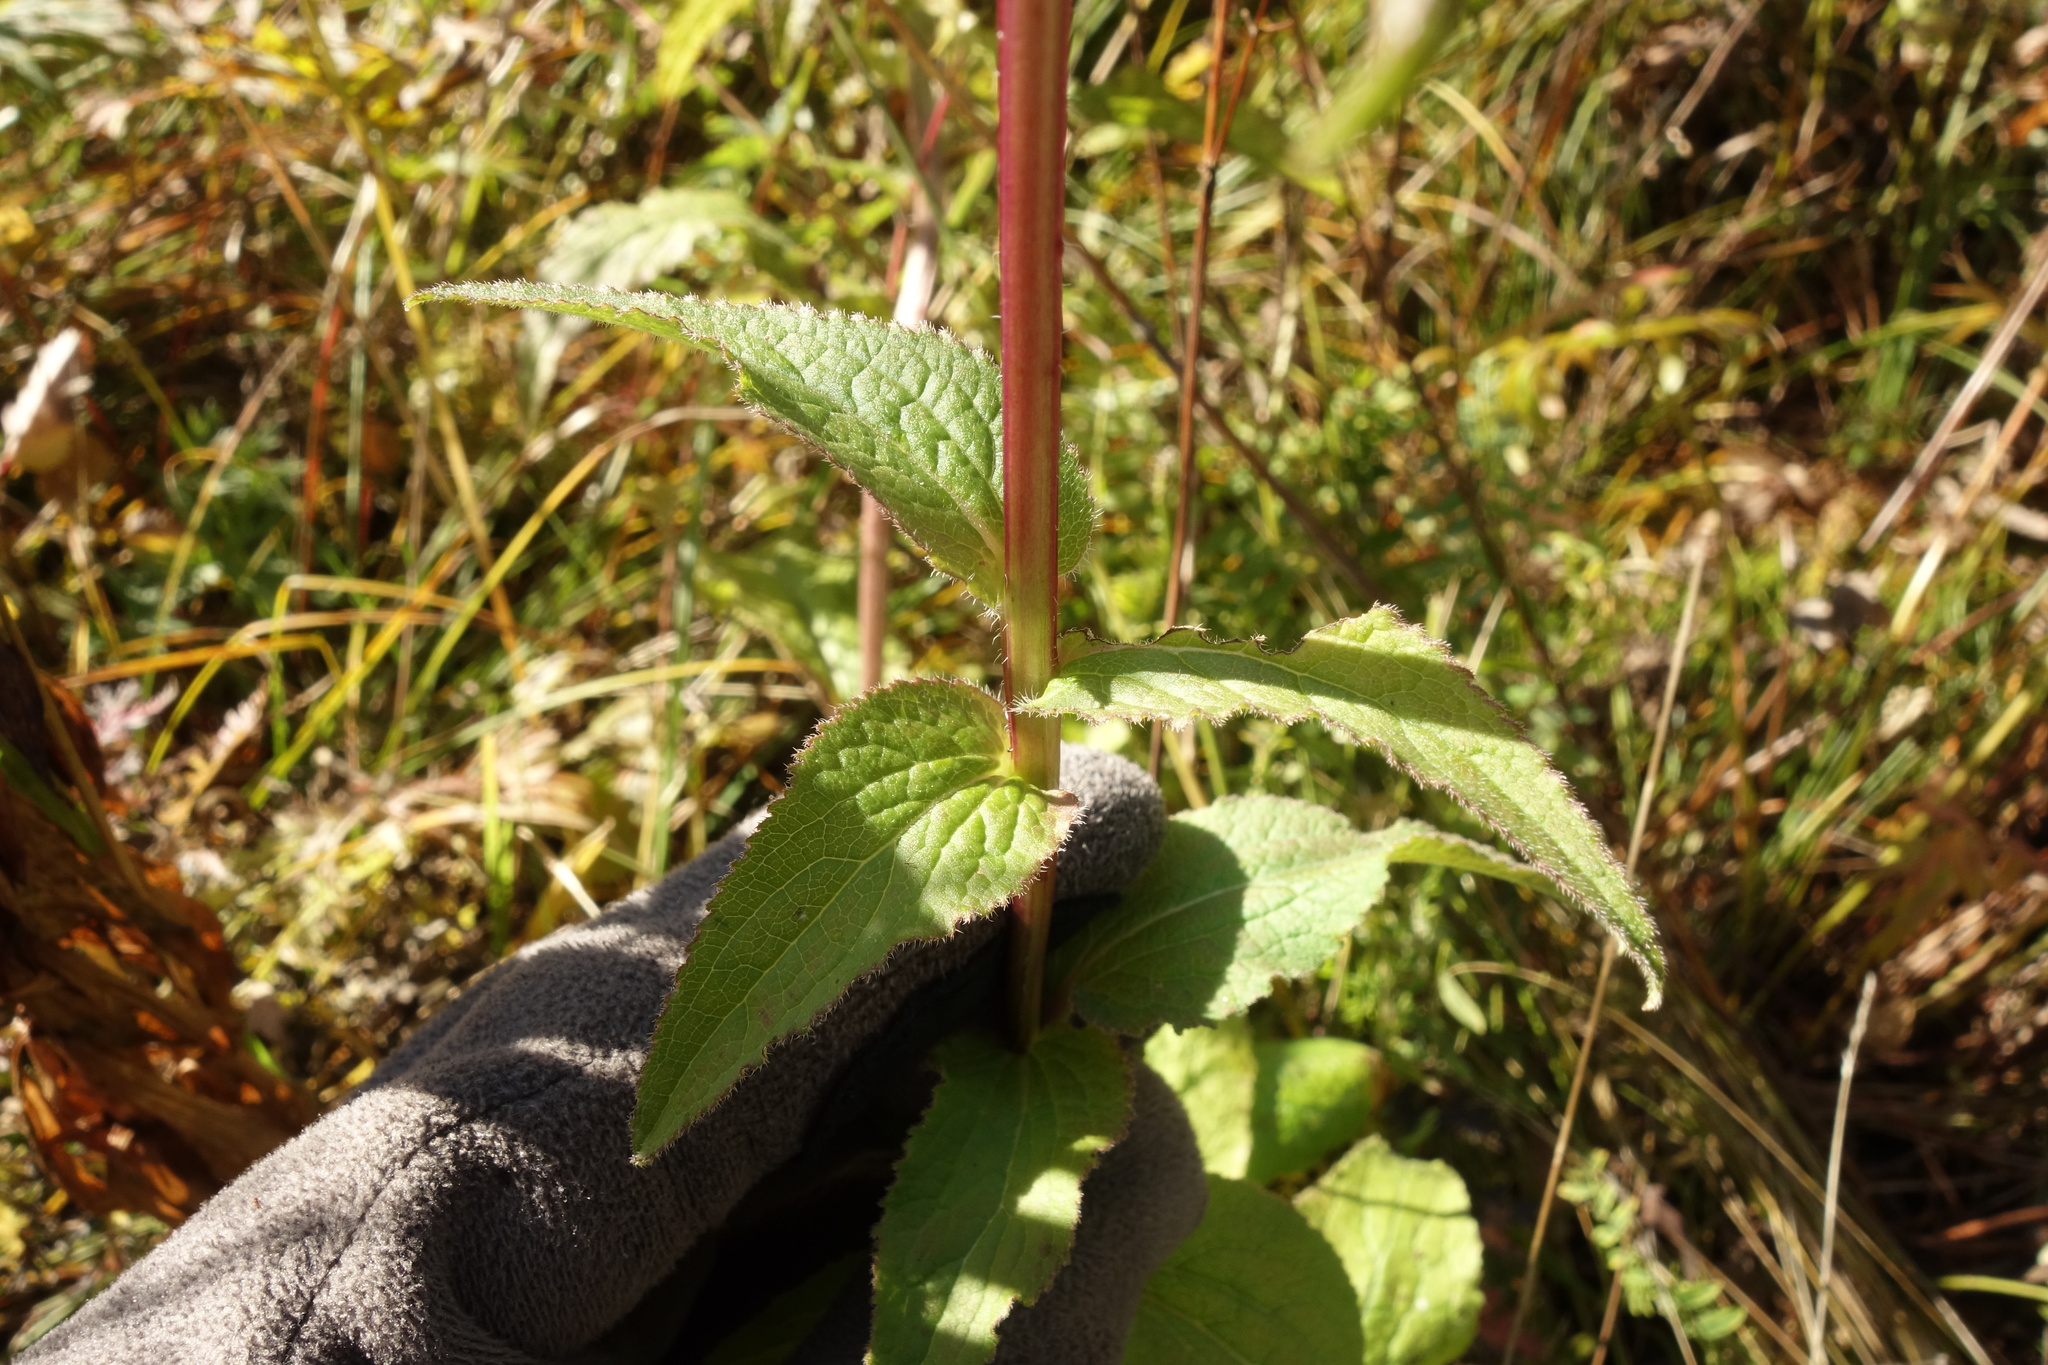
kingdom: Plantae
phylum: Tracheophyta
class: Magnoliopsida
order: Asterales
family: Campanulaceae
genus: Campanula
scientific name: Campanula glomerata
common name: Clustered bellflower
